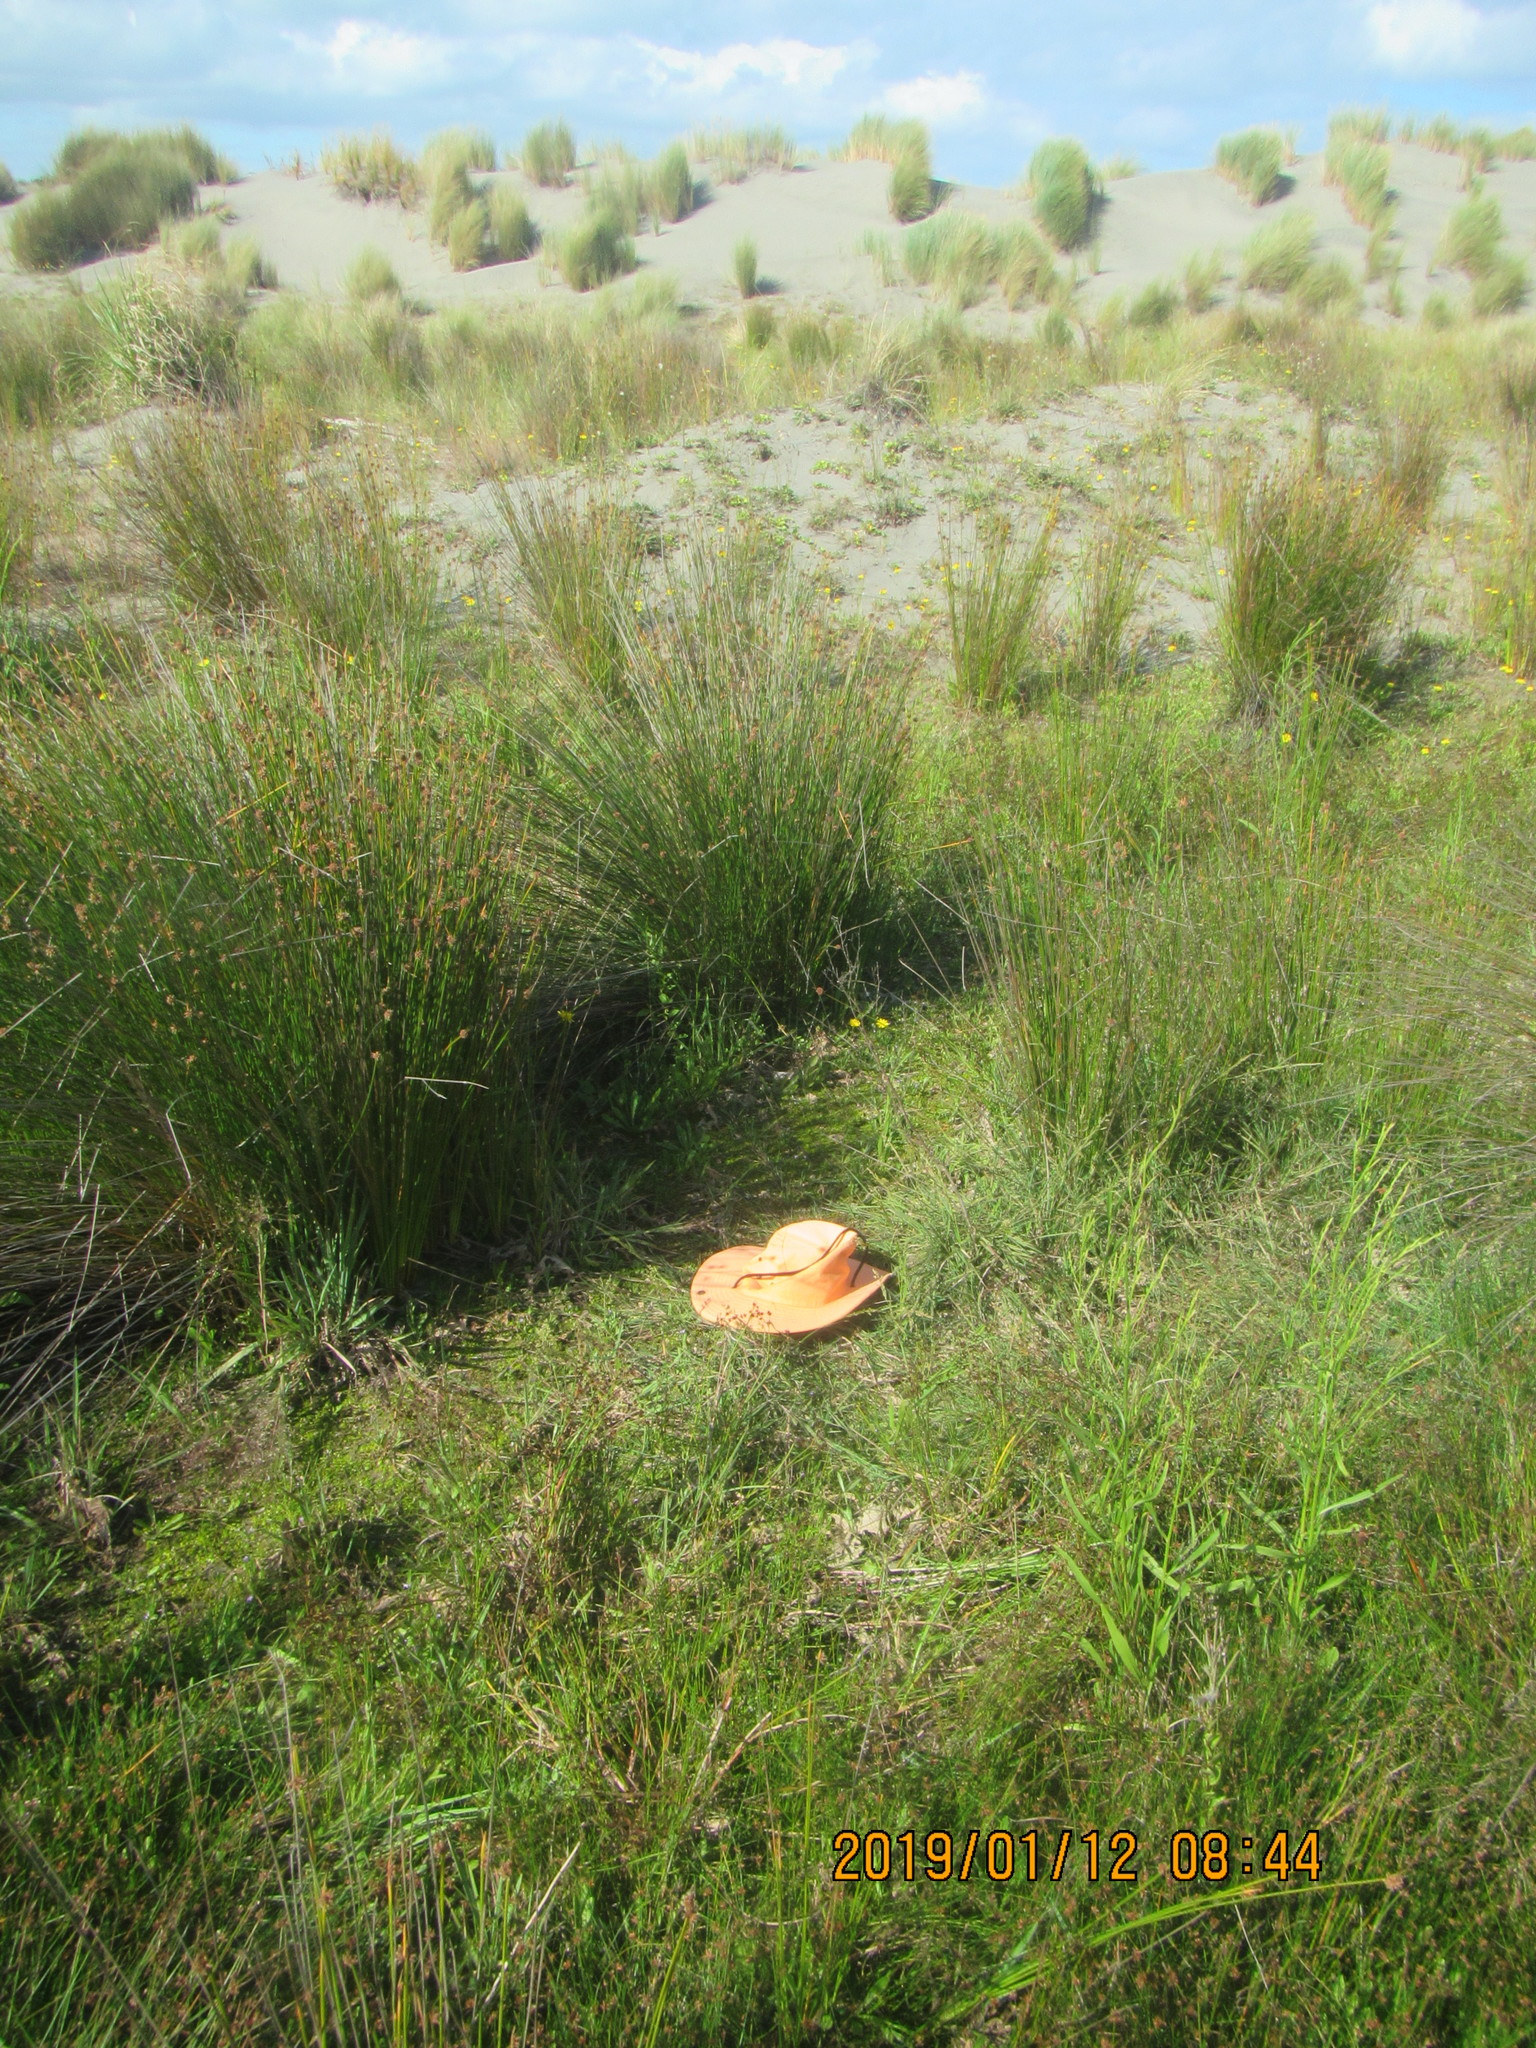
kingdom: Plantae
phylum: Tracheophyta
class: Magnoliopsida
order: Asterales
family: Campanulaceae
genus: Lobelia
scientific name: Lobelia anceps
